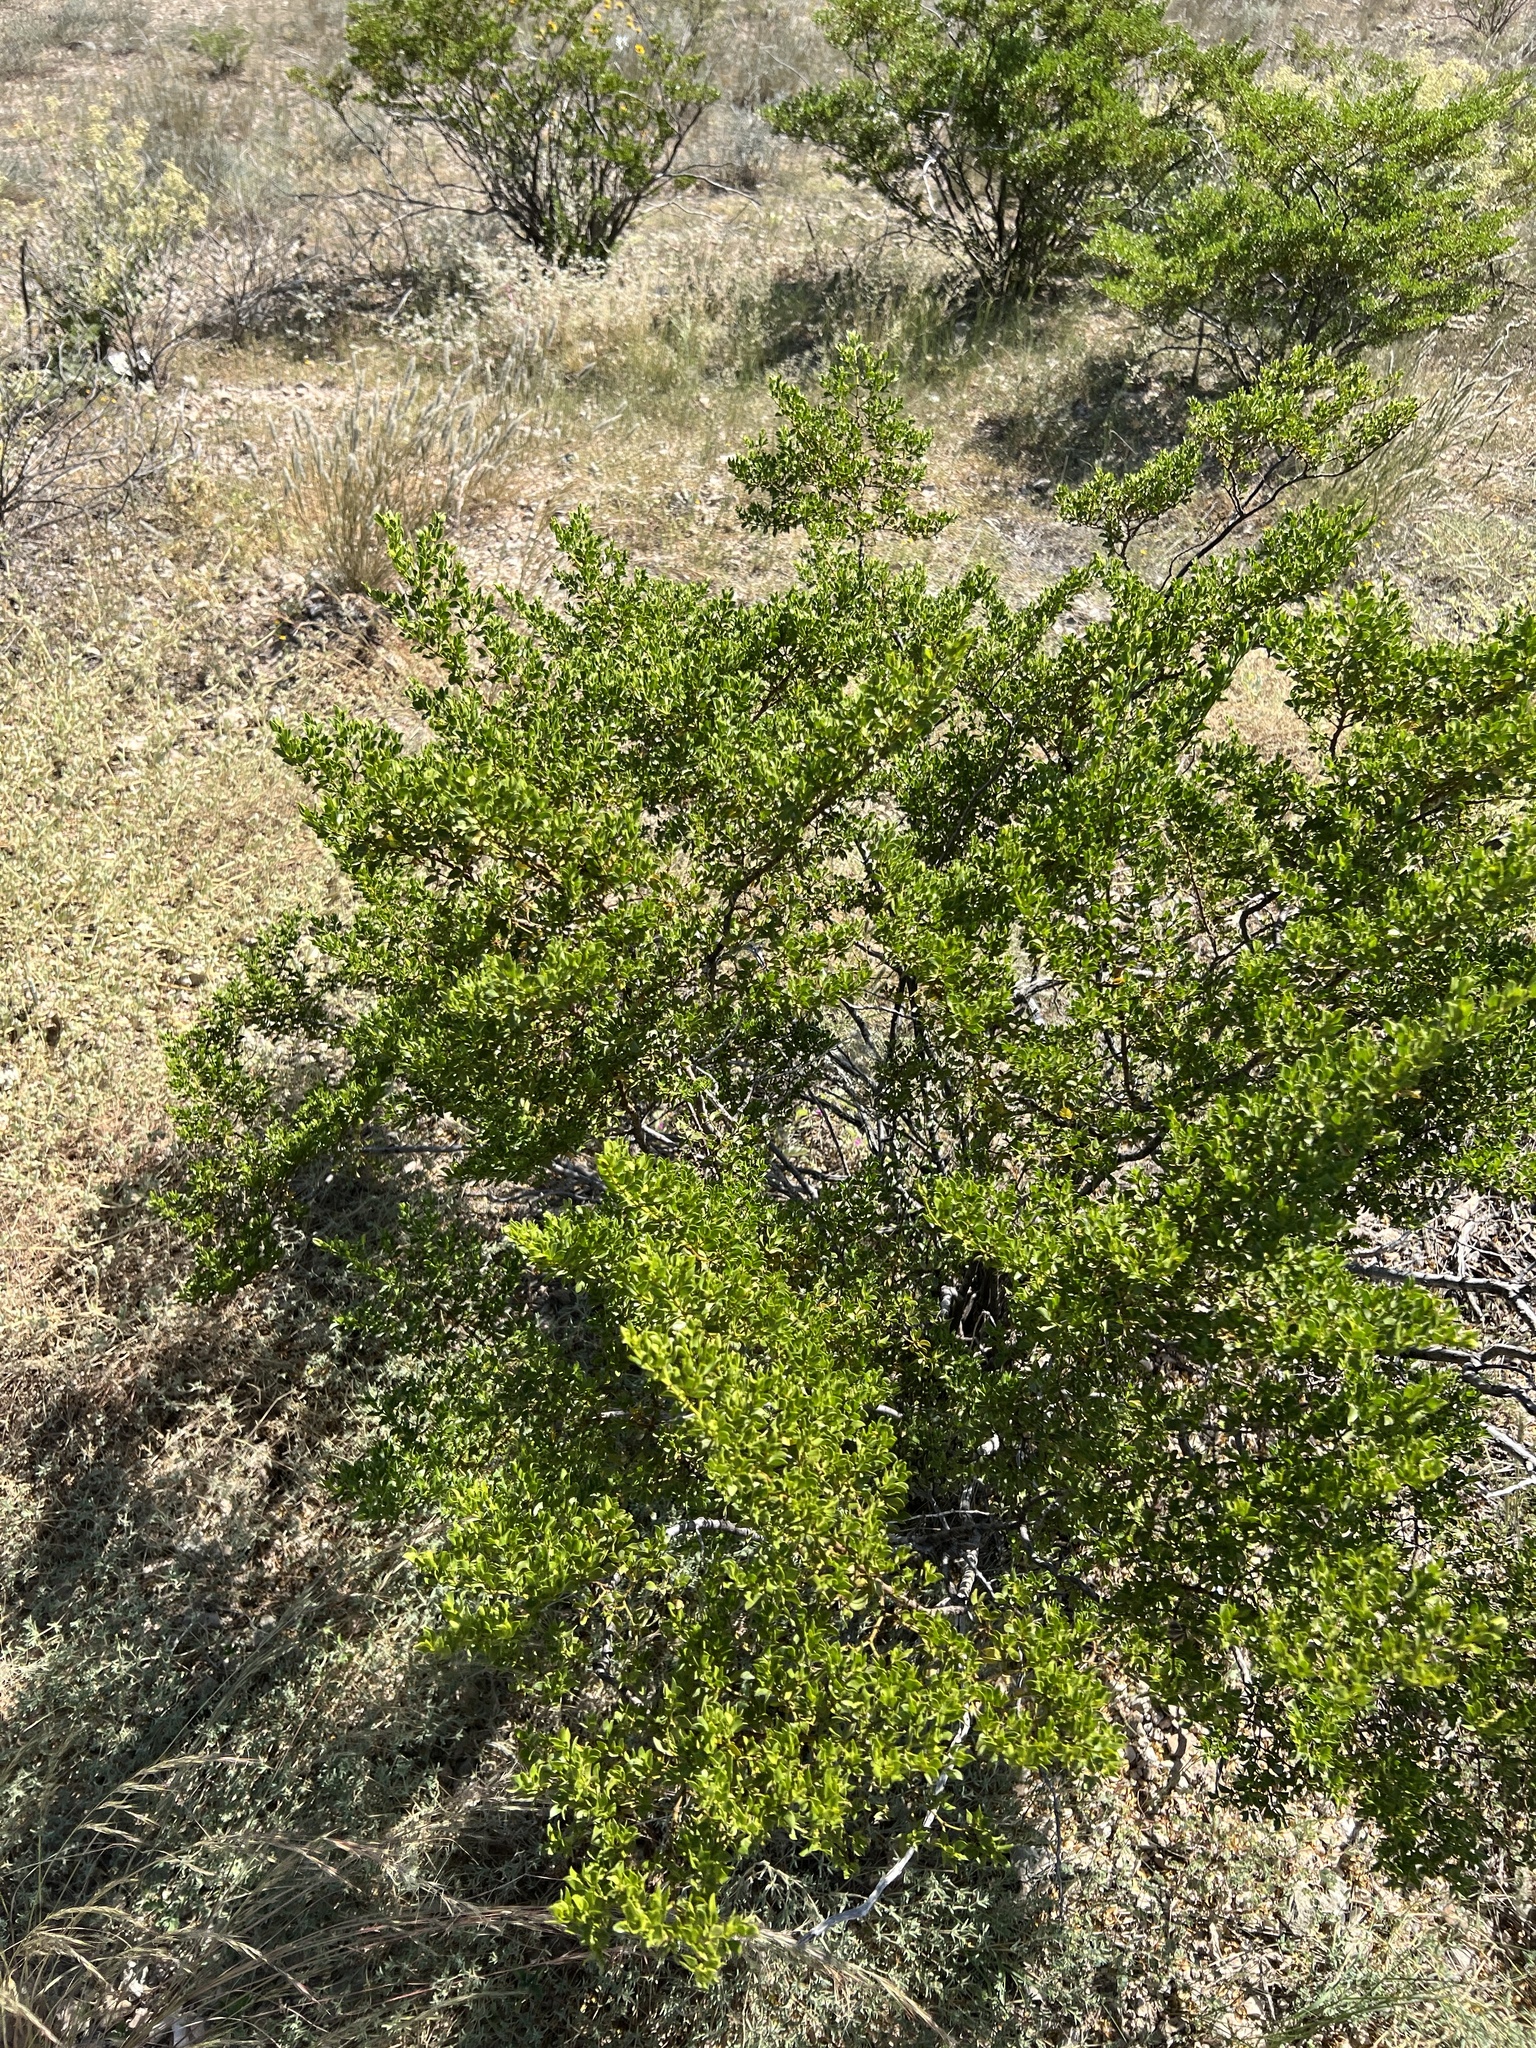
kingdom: Plantae
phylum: Tracheophyta
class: Magnoliopsida
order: Zygophyllales
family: Zygophyllaceae
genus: Larrea
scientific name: Larrea tridentata
